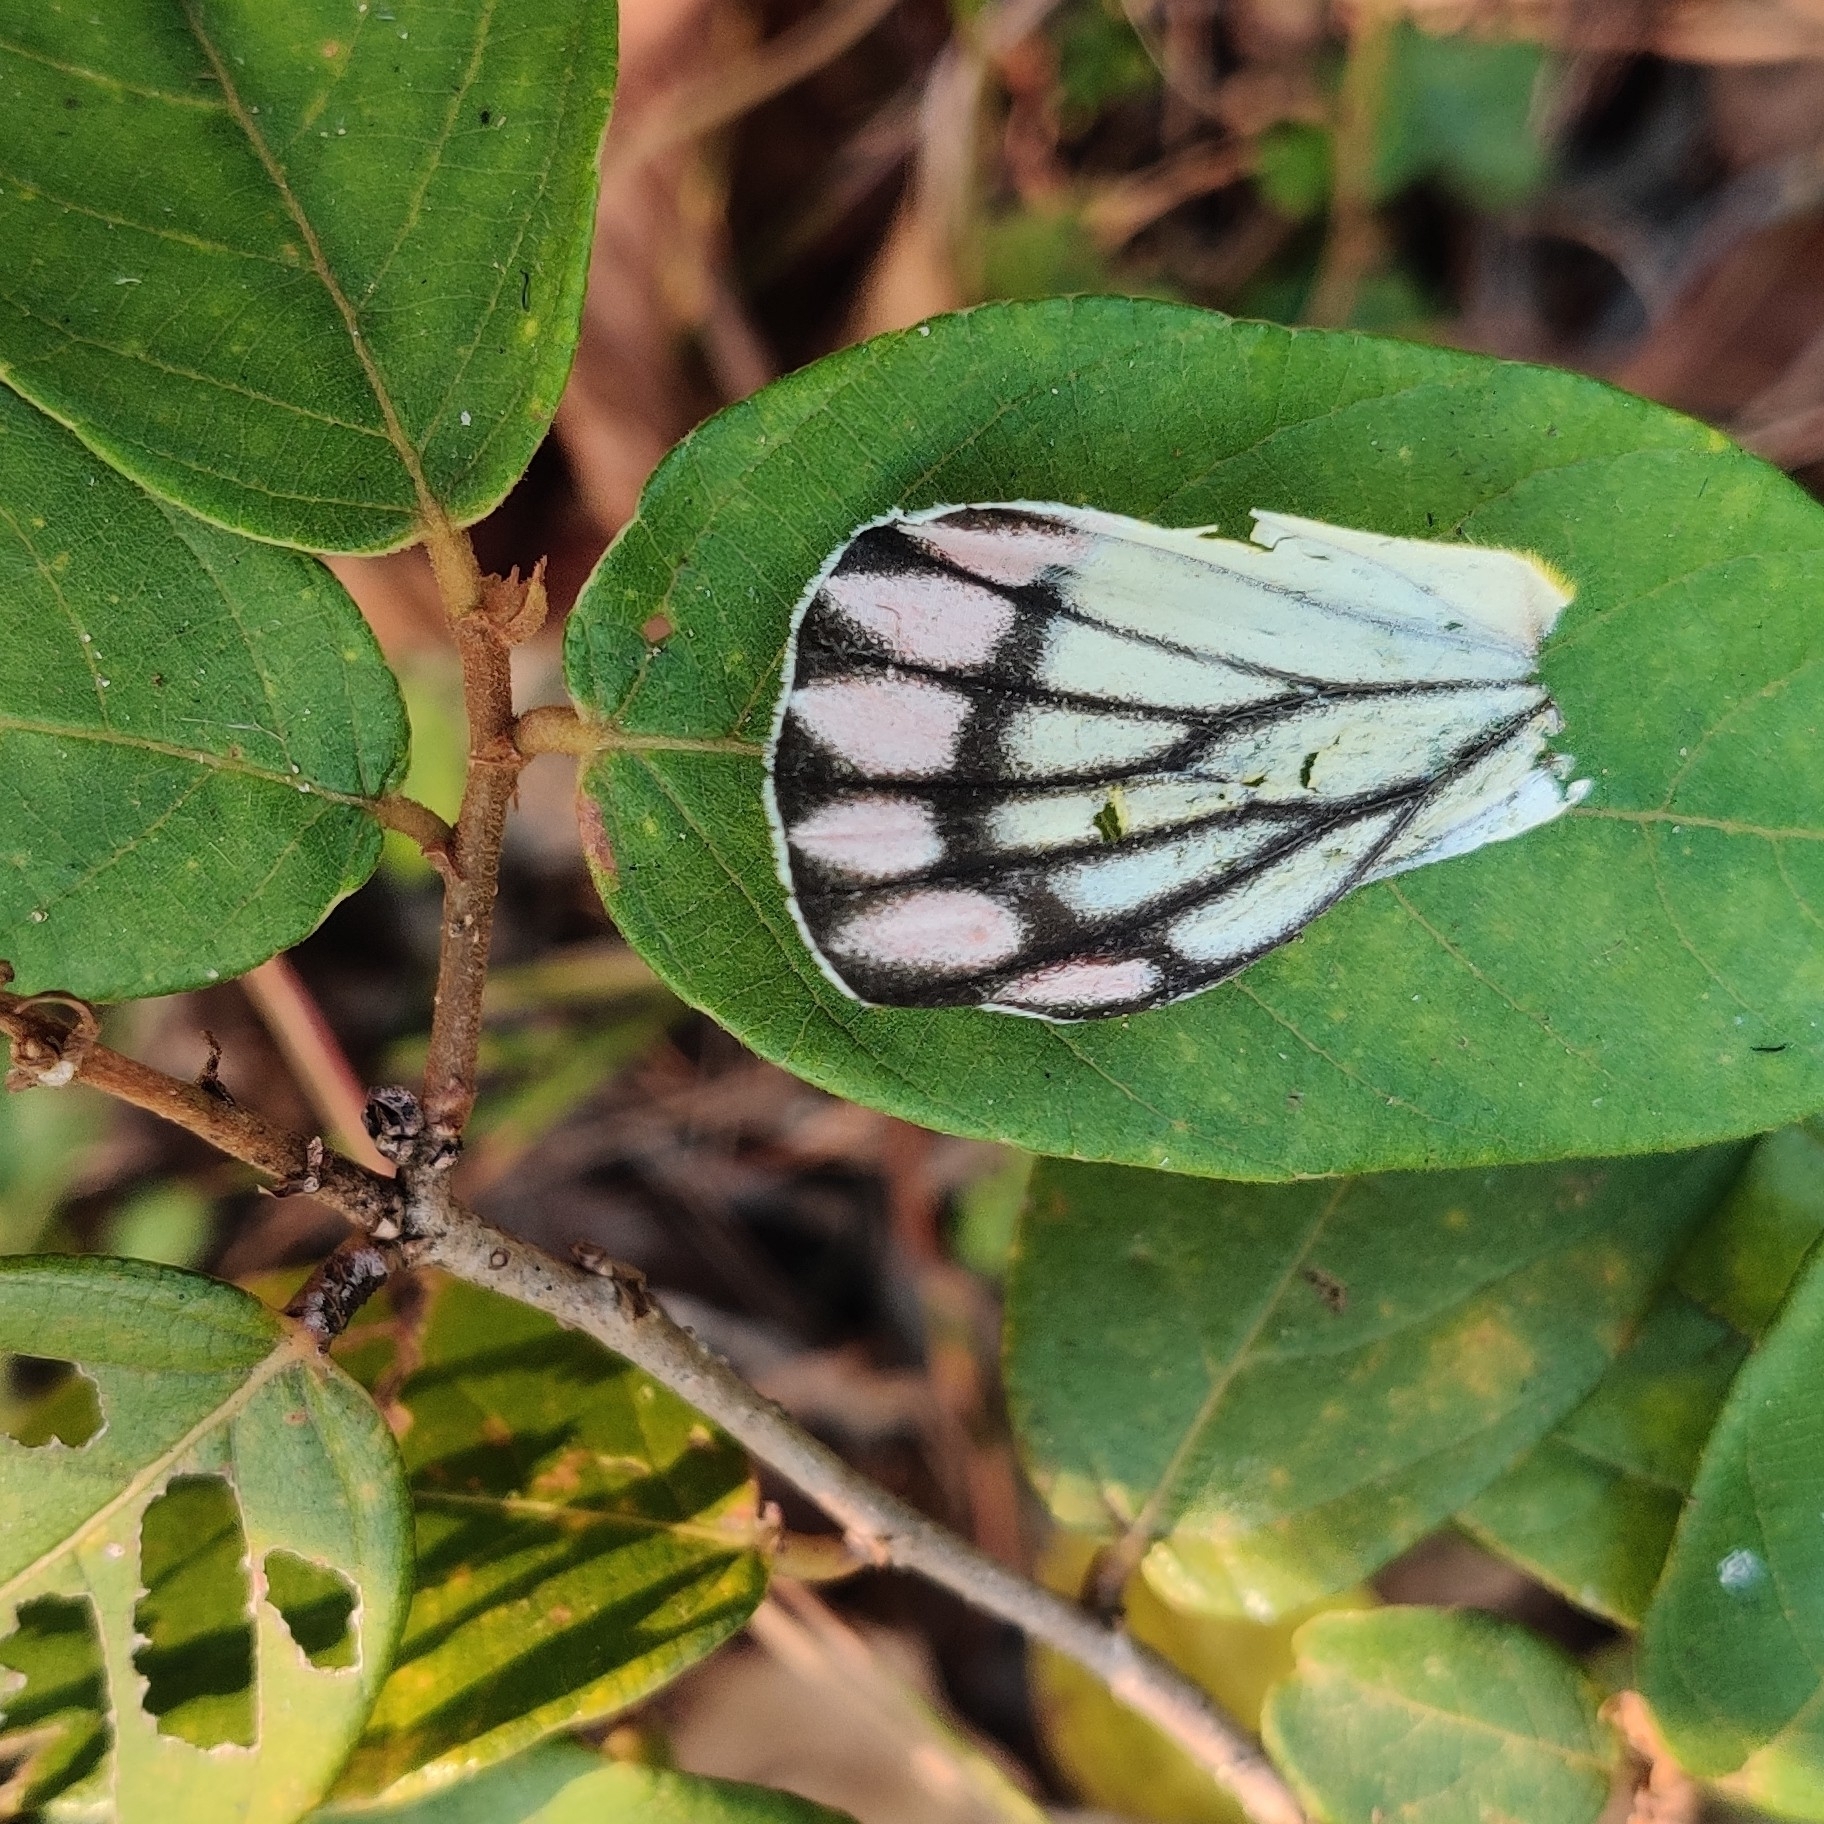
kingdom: Animalia
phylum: Arthropoda
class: Insecta
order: Lepidoptera
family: Pieridae
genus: Delias
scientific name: Delias eucharis
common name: Common jezebel
